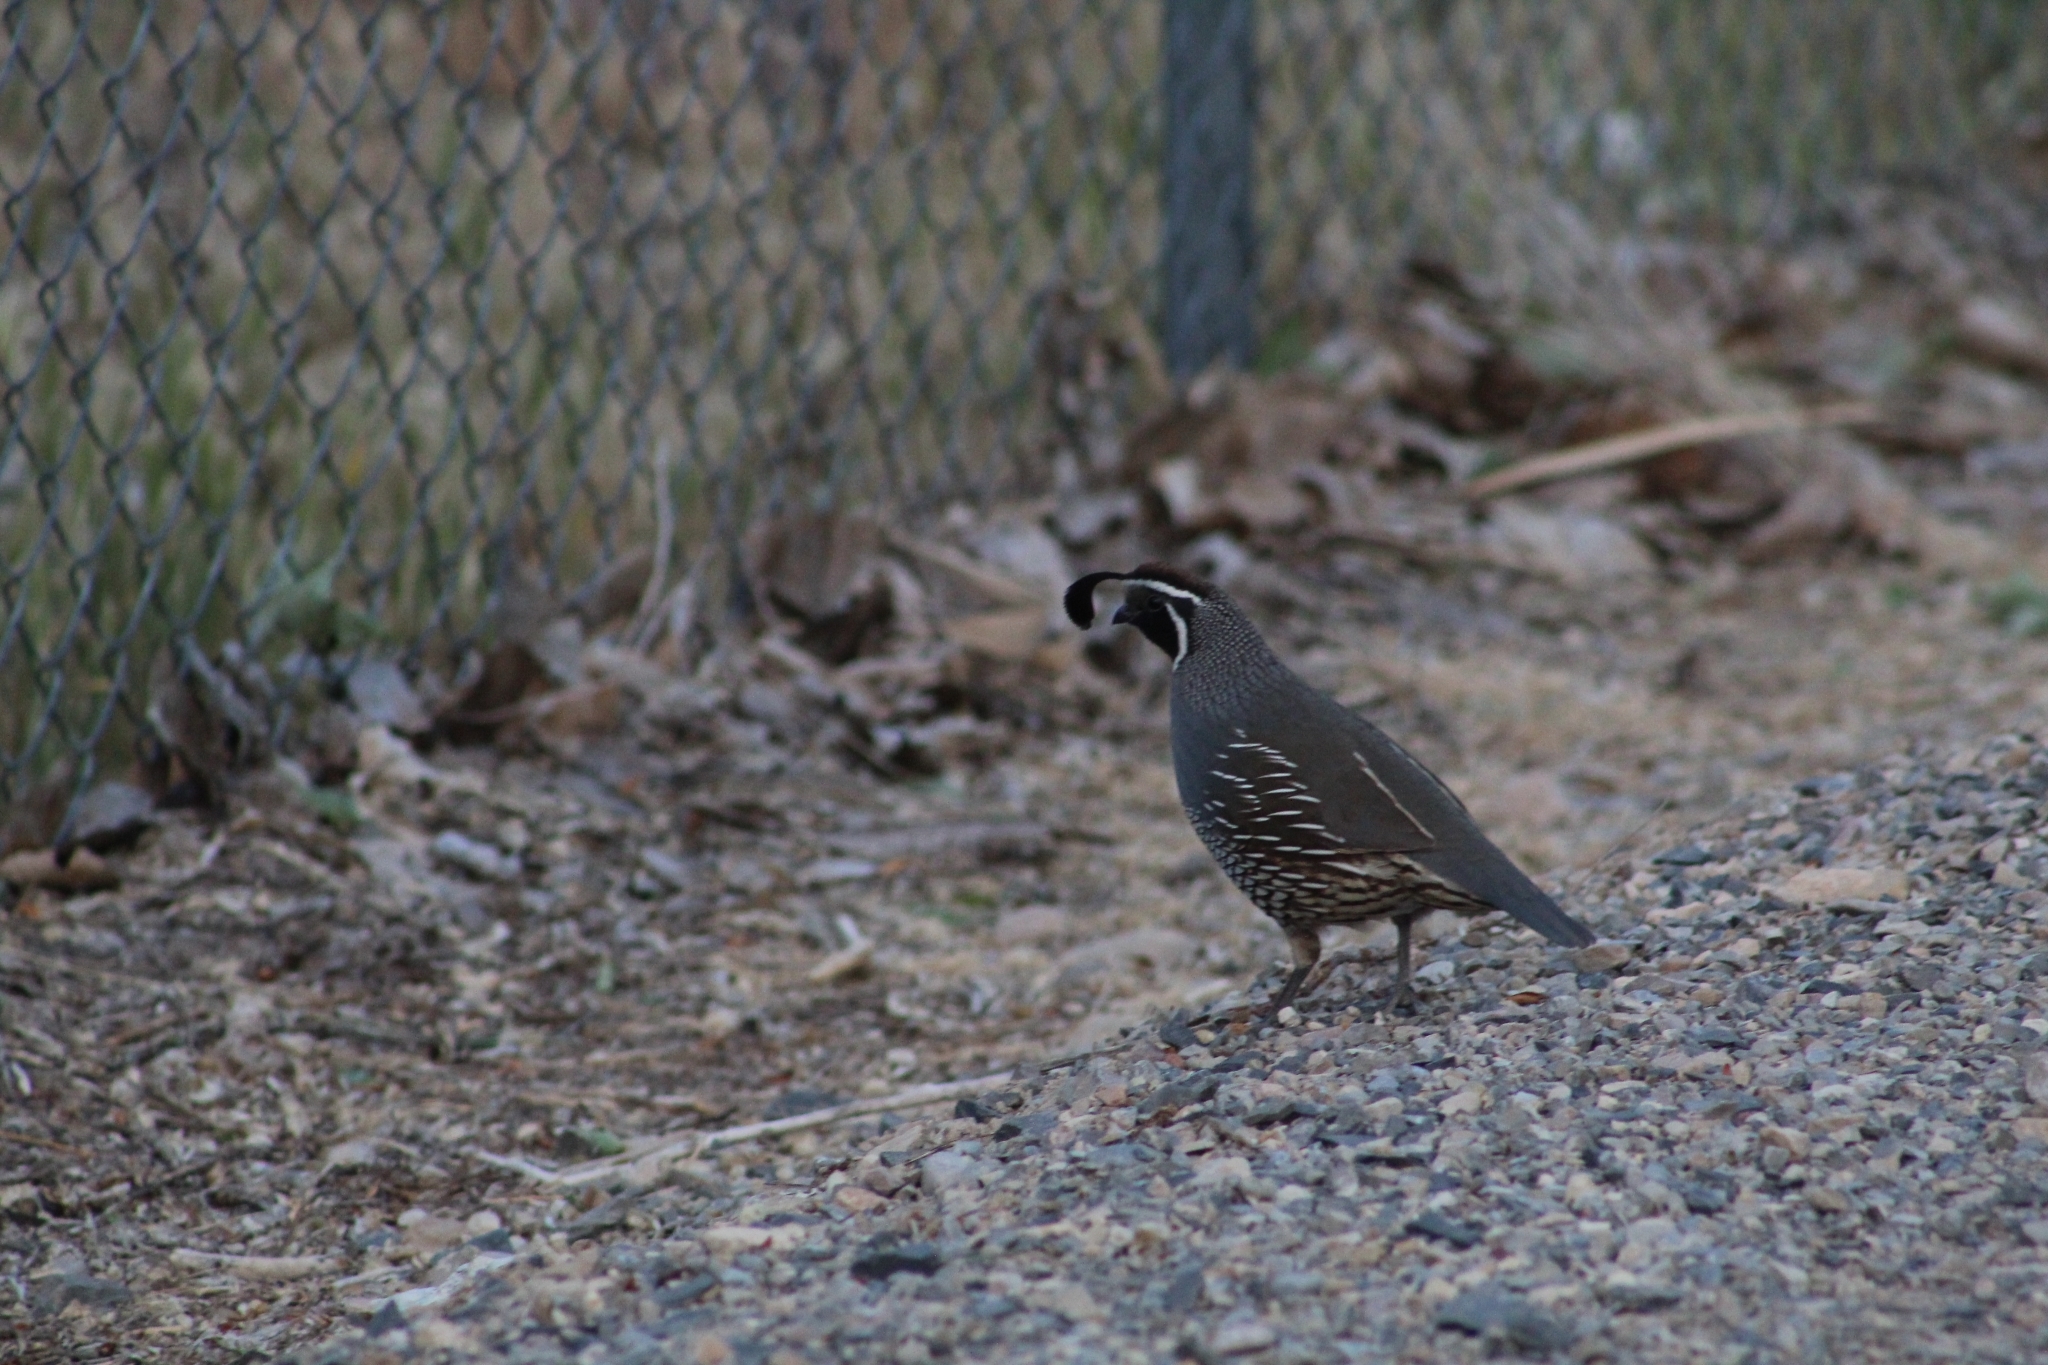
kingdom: Animalia
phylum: Chordata
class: Aves
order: Galliformes
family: Odontophoridae
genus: Callipepla
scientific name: Callipepla californica
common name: California quail
